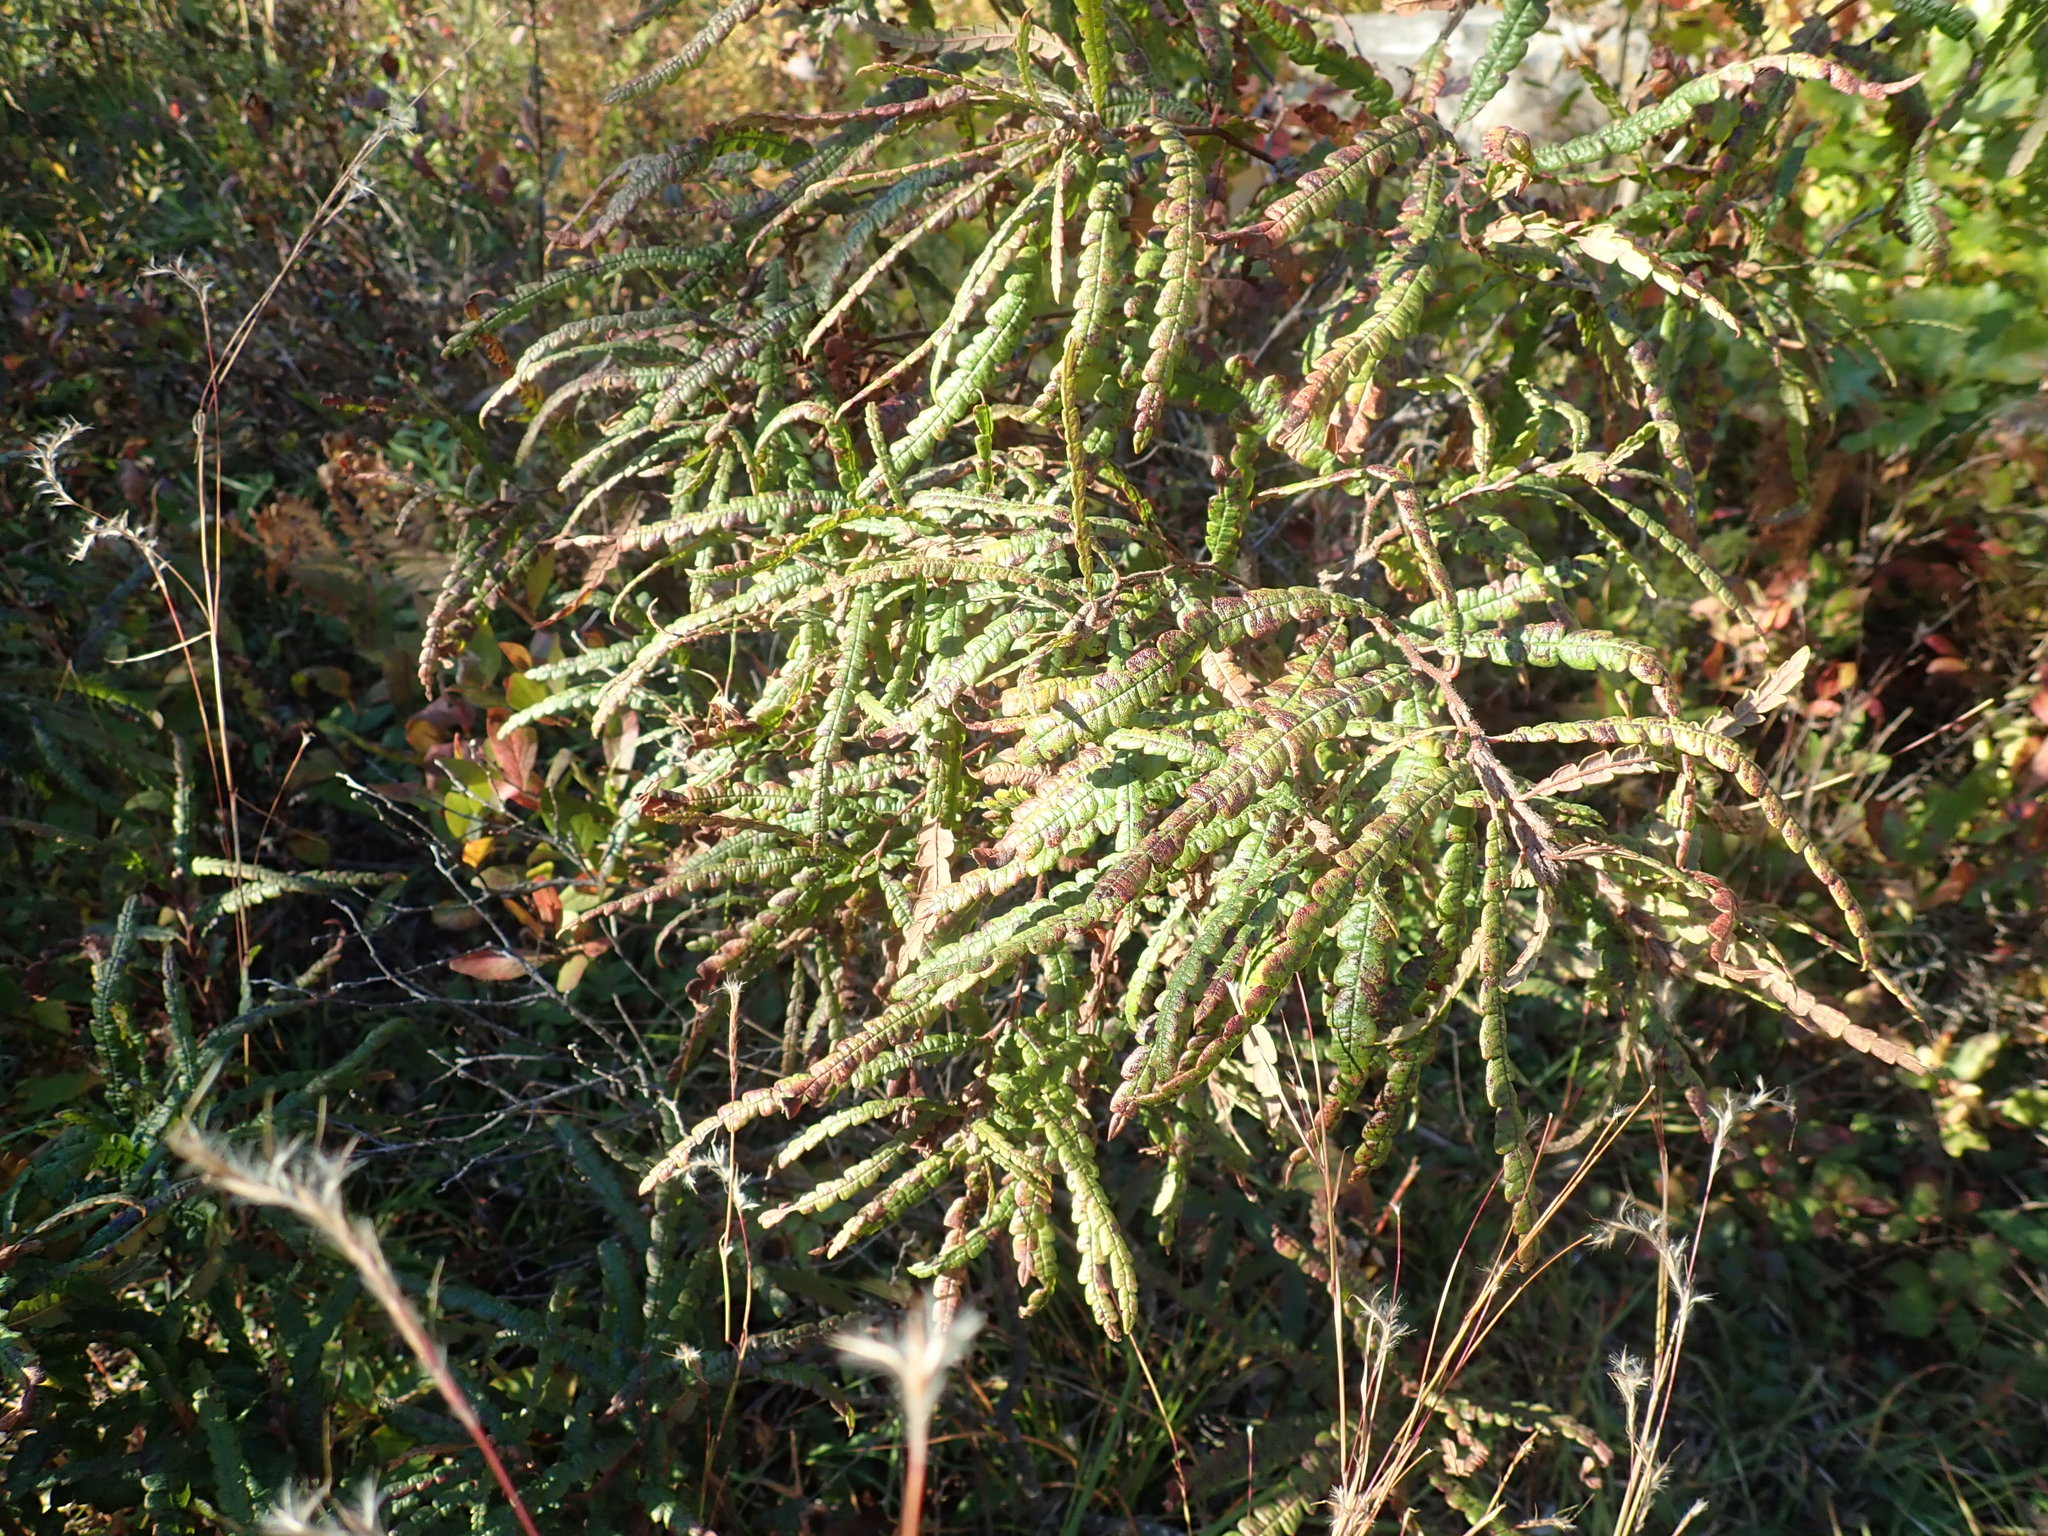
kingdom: Plantae
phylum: Tracheophyta
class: Magnoliopsida
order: Fagales
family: Myricaceae
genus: Comptonia
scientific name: Comptonia peregrina
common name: Sweet-fern
